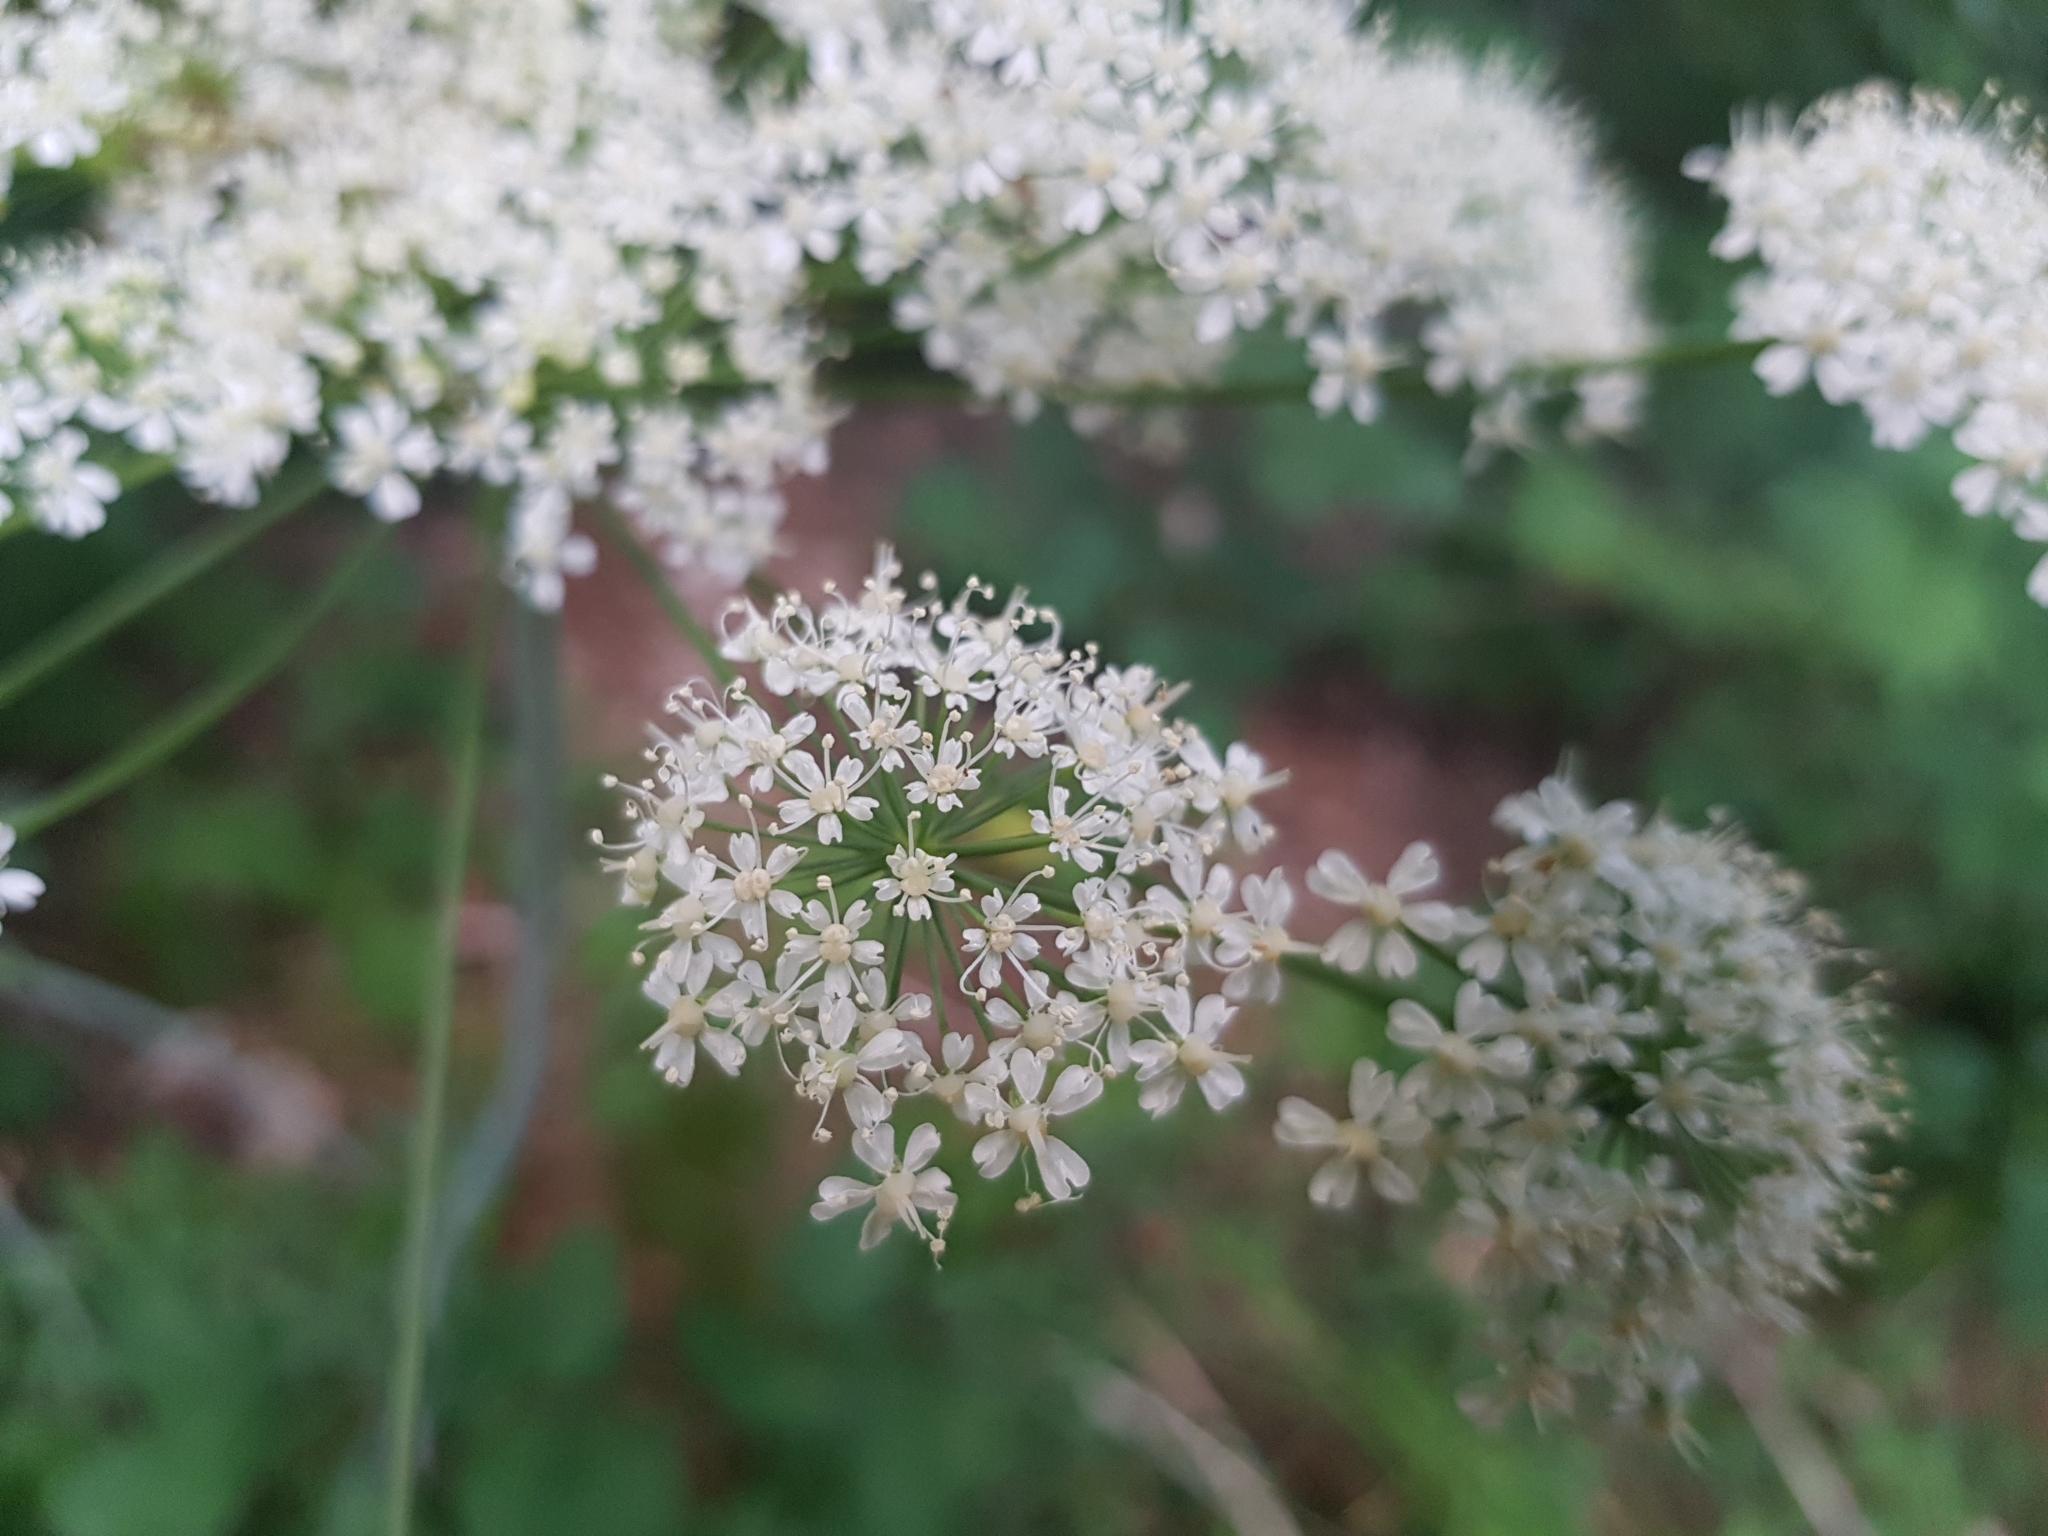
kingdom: Plantae
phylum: Tracheophyta
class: Magnoliopsida
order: Apiales
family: Apiaceae
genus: Laserpitium
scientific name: Laserpitium latifolium
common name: Broadleaf sermountain
